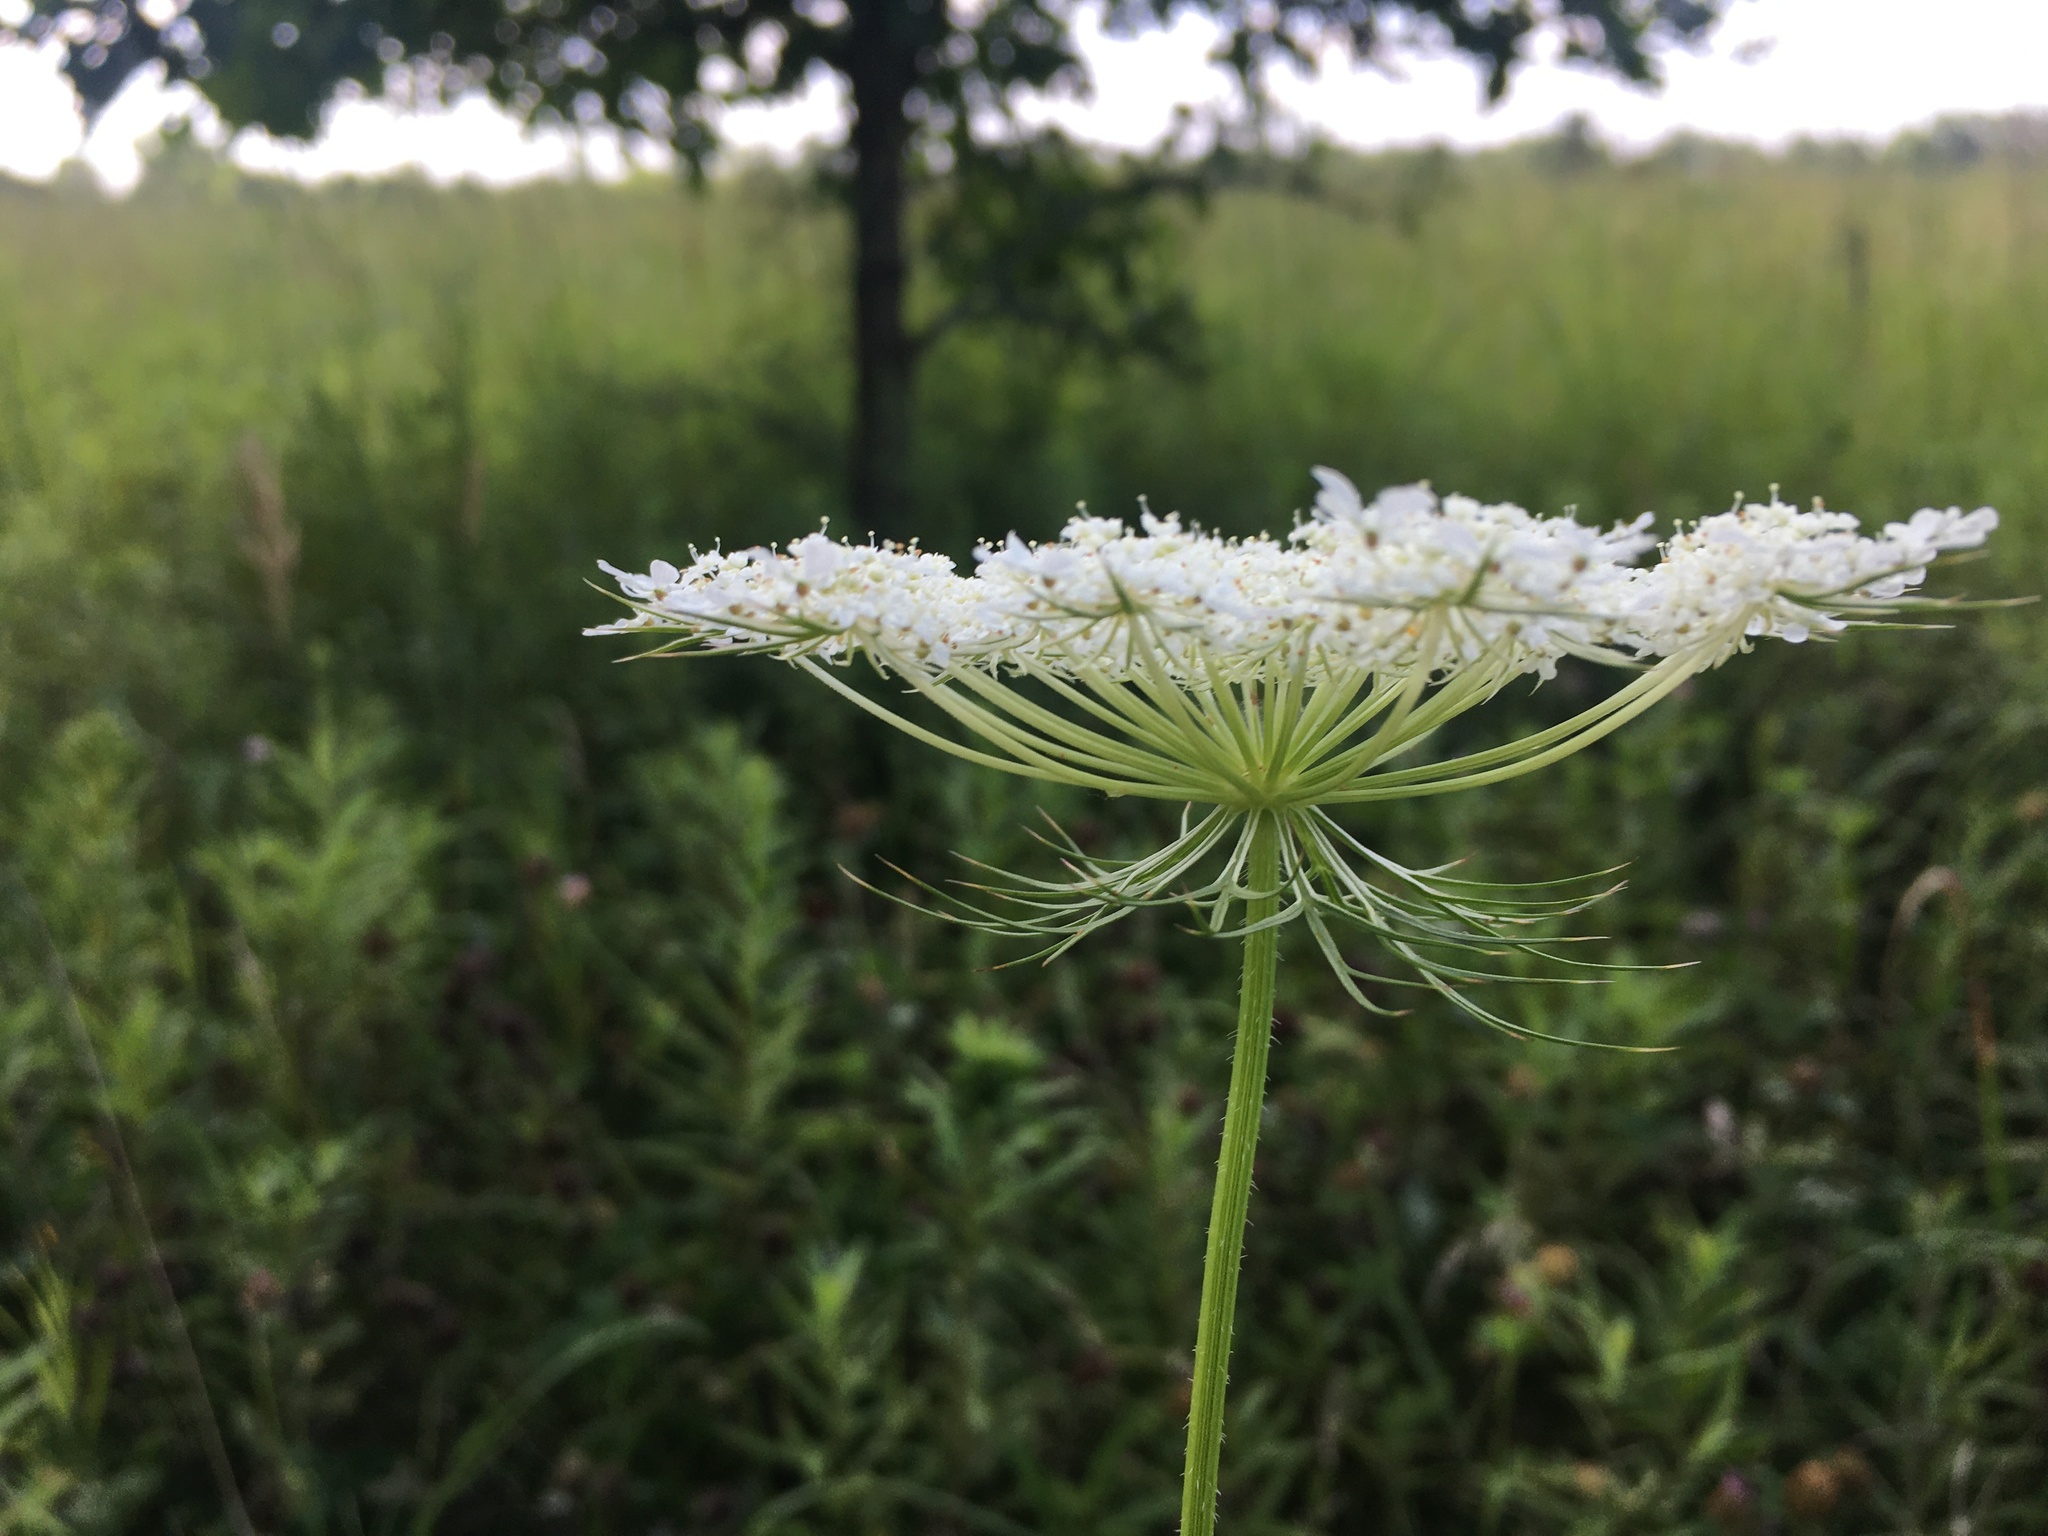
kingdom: Plantae
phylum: Tracheophyta
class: Magnoliopsida
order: Apiales
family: Apiaceae
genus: Daucus
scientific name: Daucus carota
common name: Wild carrot
